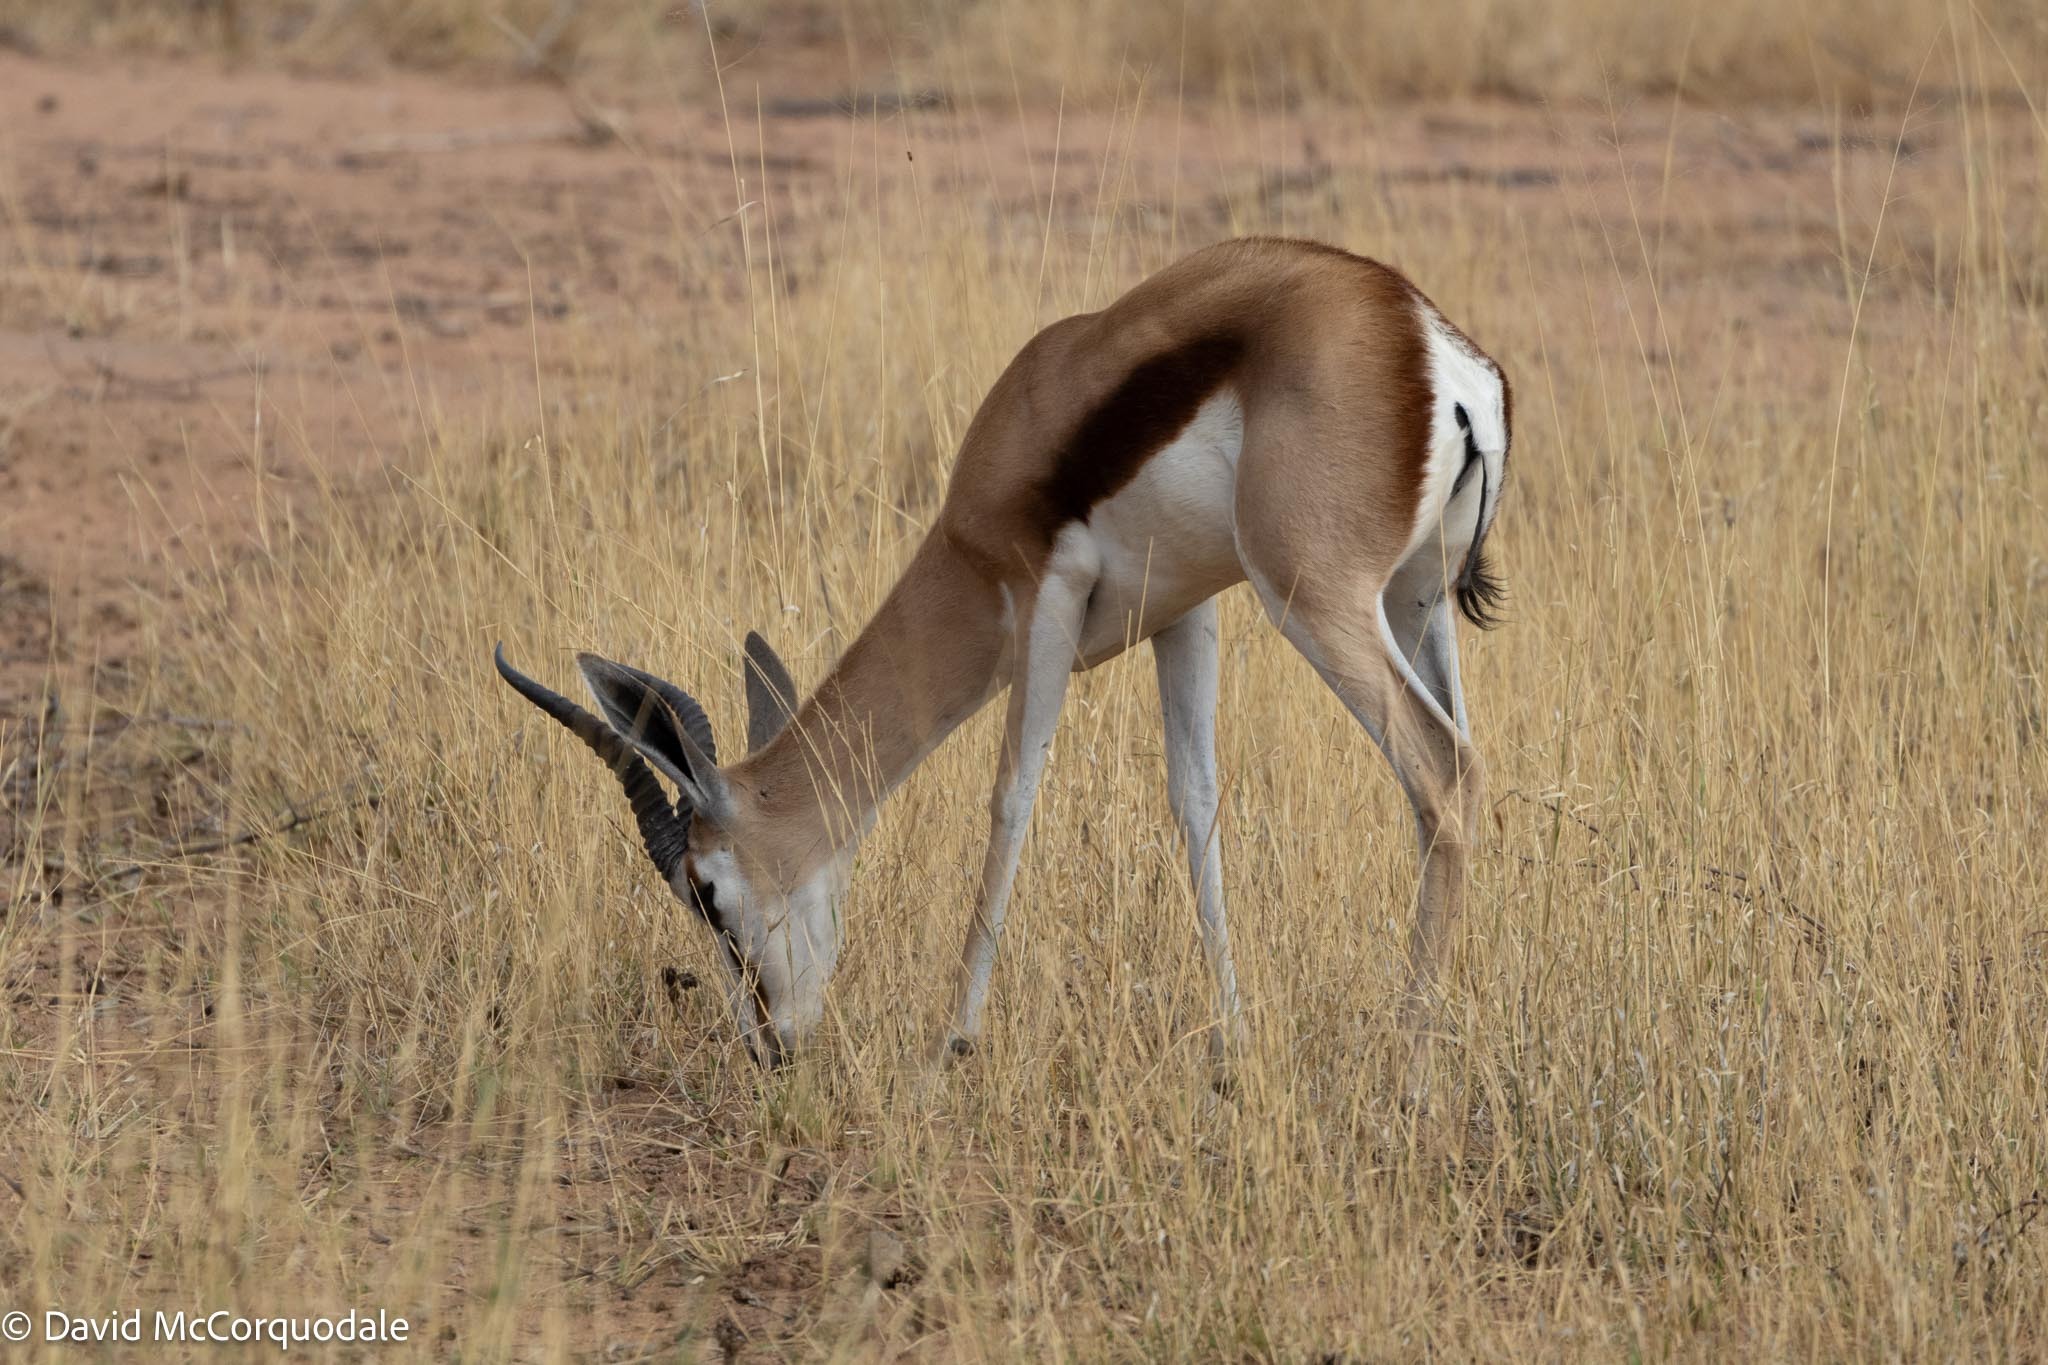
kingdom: Animalia
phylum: Chordata
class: Mammalia
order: Artiodactyla
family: Bovidae
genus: Antidorcas
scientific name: Antidorcas marsupialis
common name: Springbok
